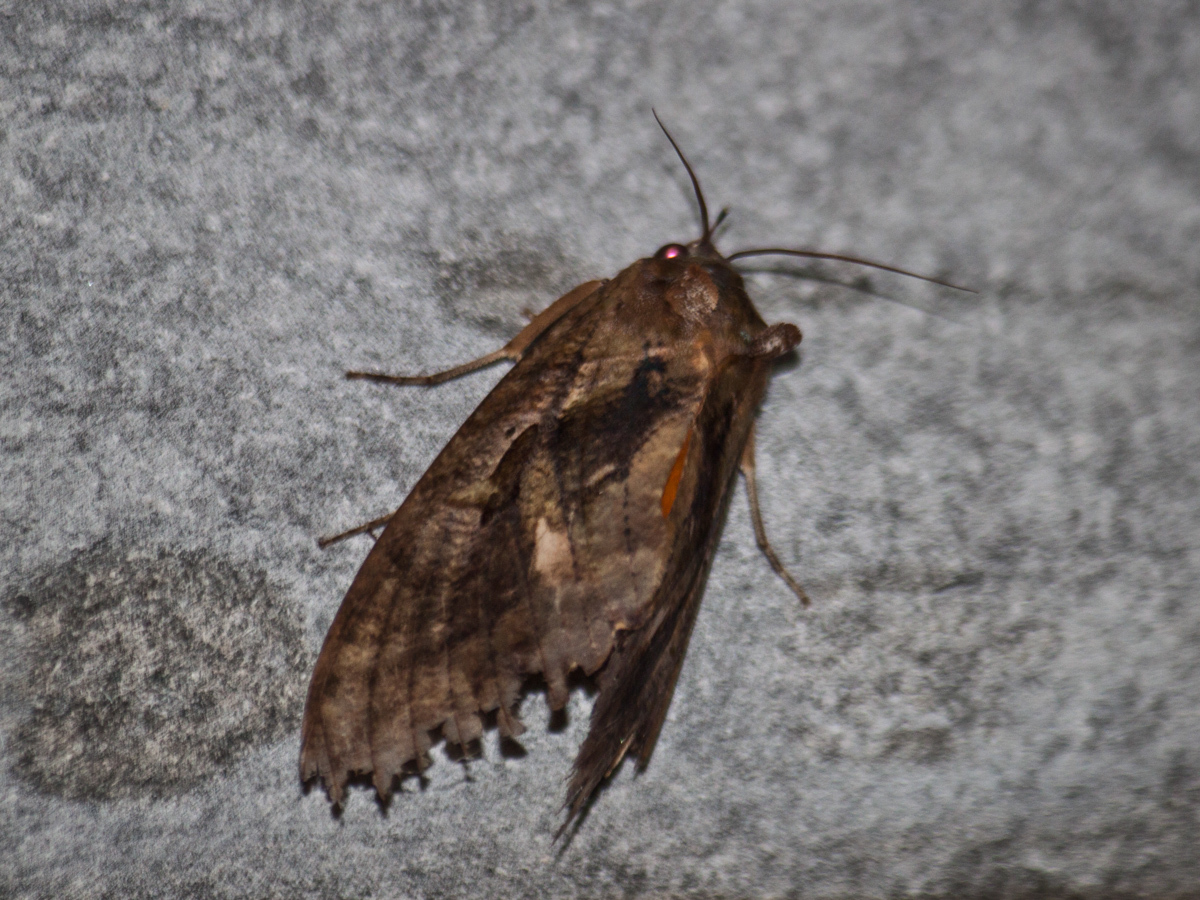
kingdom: Animalia
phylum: Arthropoda
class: Insecta
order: Lepidoptera
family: Erebidae
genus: Eudocima
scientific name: Eudocima phalonia
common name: Wasp
